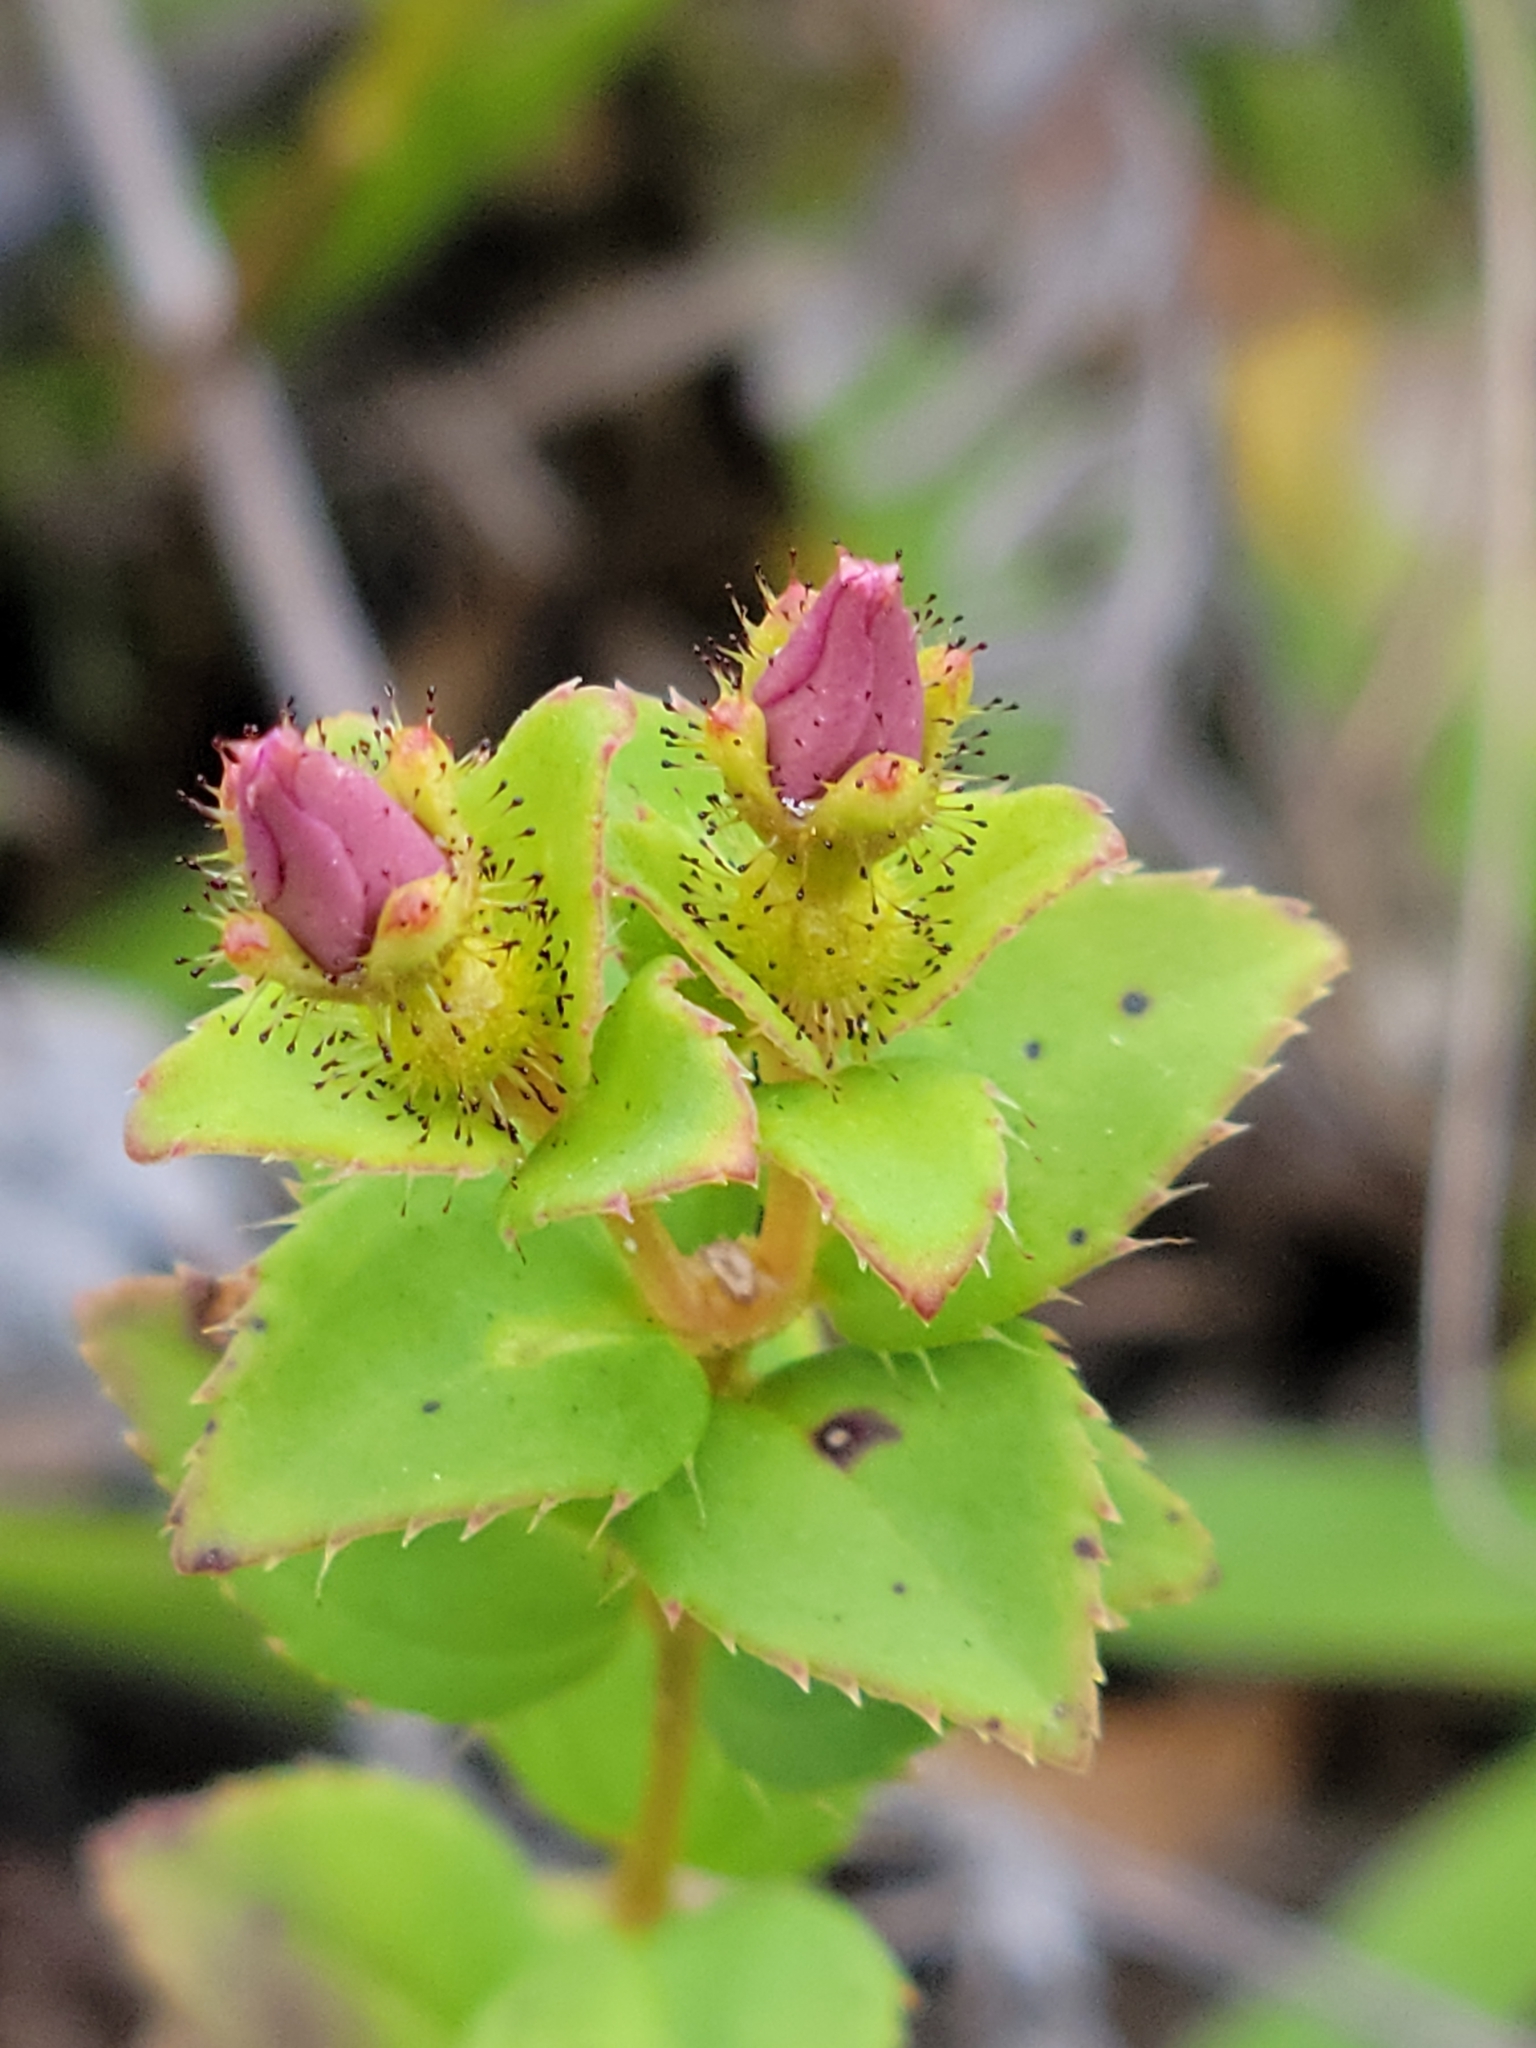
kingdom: Plantae
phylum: Tracheophyta
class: Magnoliopsida
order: Myrtales
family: Melastomataceae
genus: Rhexia
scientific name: Rhexia nuttallii
